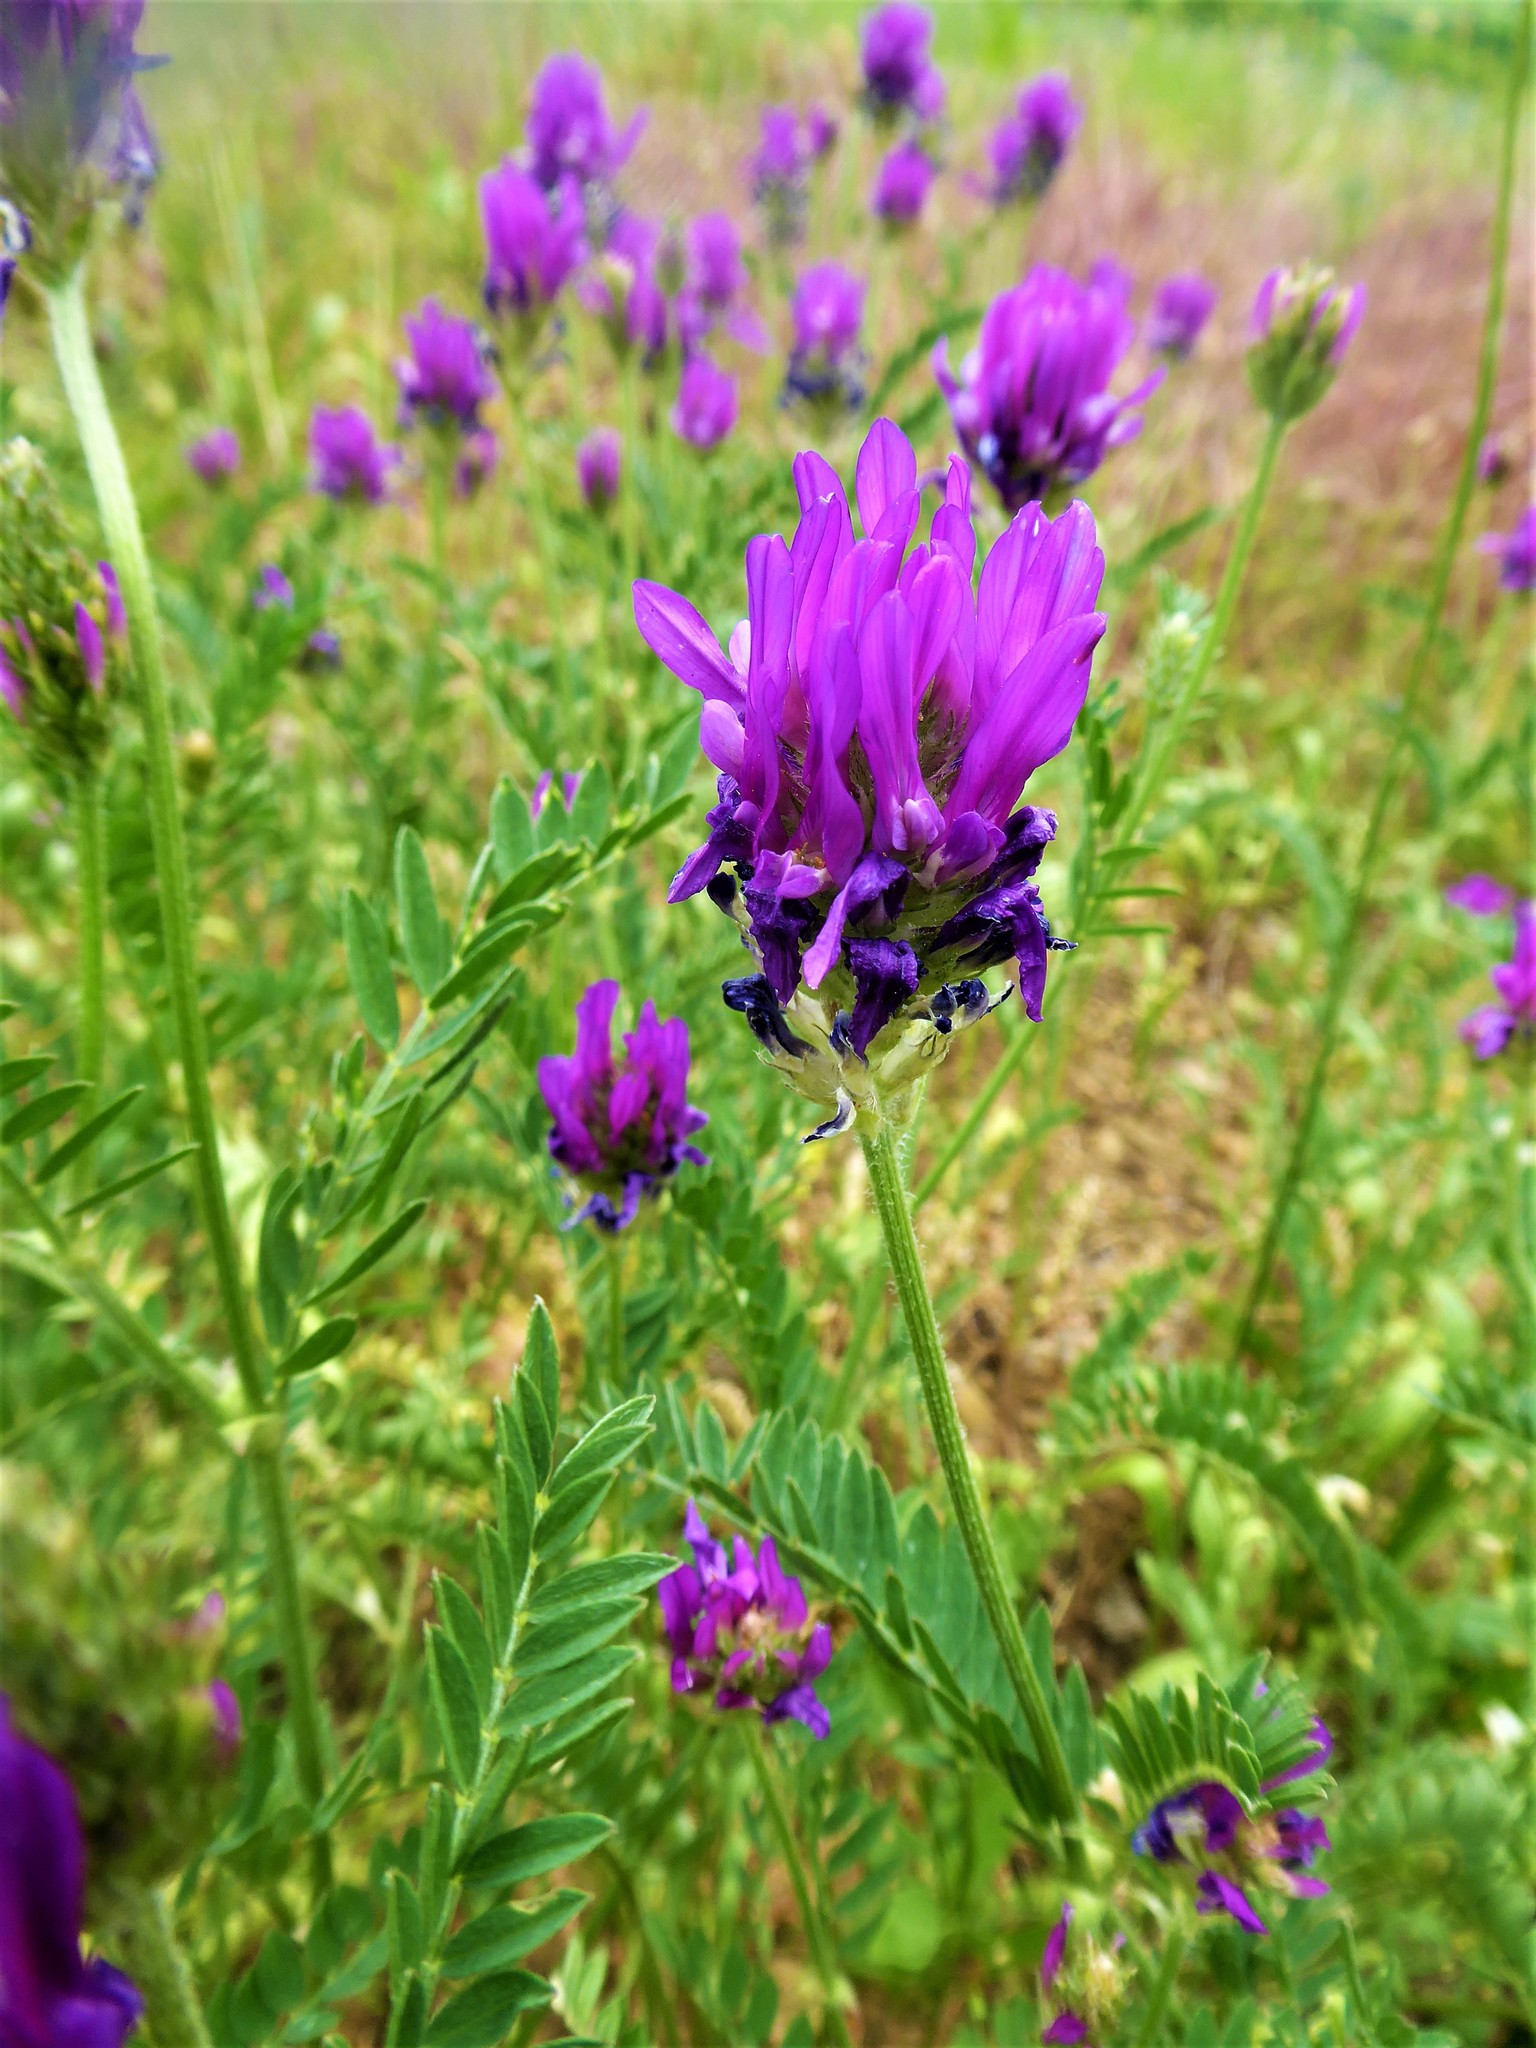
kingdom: Plantae
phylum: Tracheophyta
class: Magnoliopsida
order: Fabales
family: Fabaceae
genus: Astragalus
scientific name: Astragalus onobrychis
